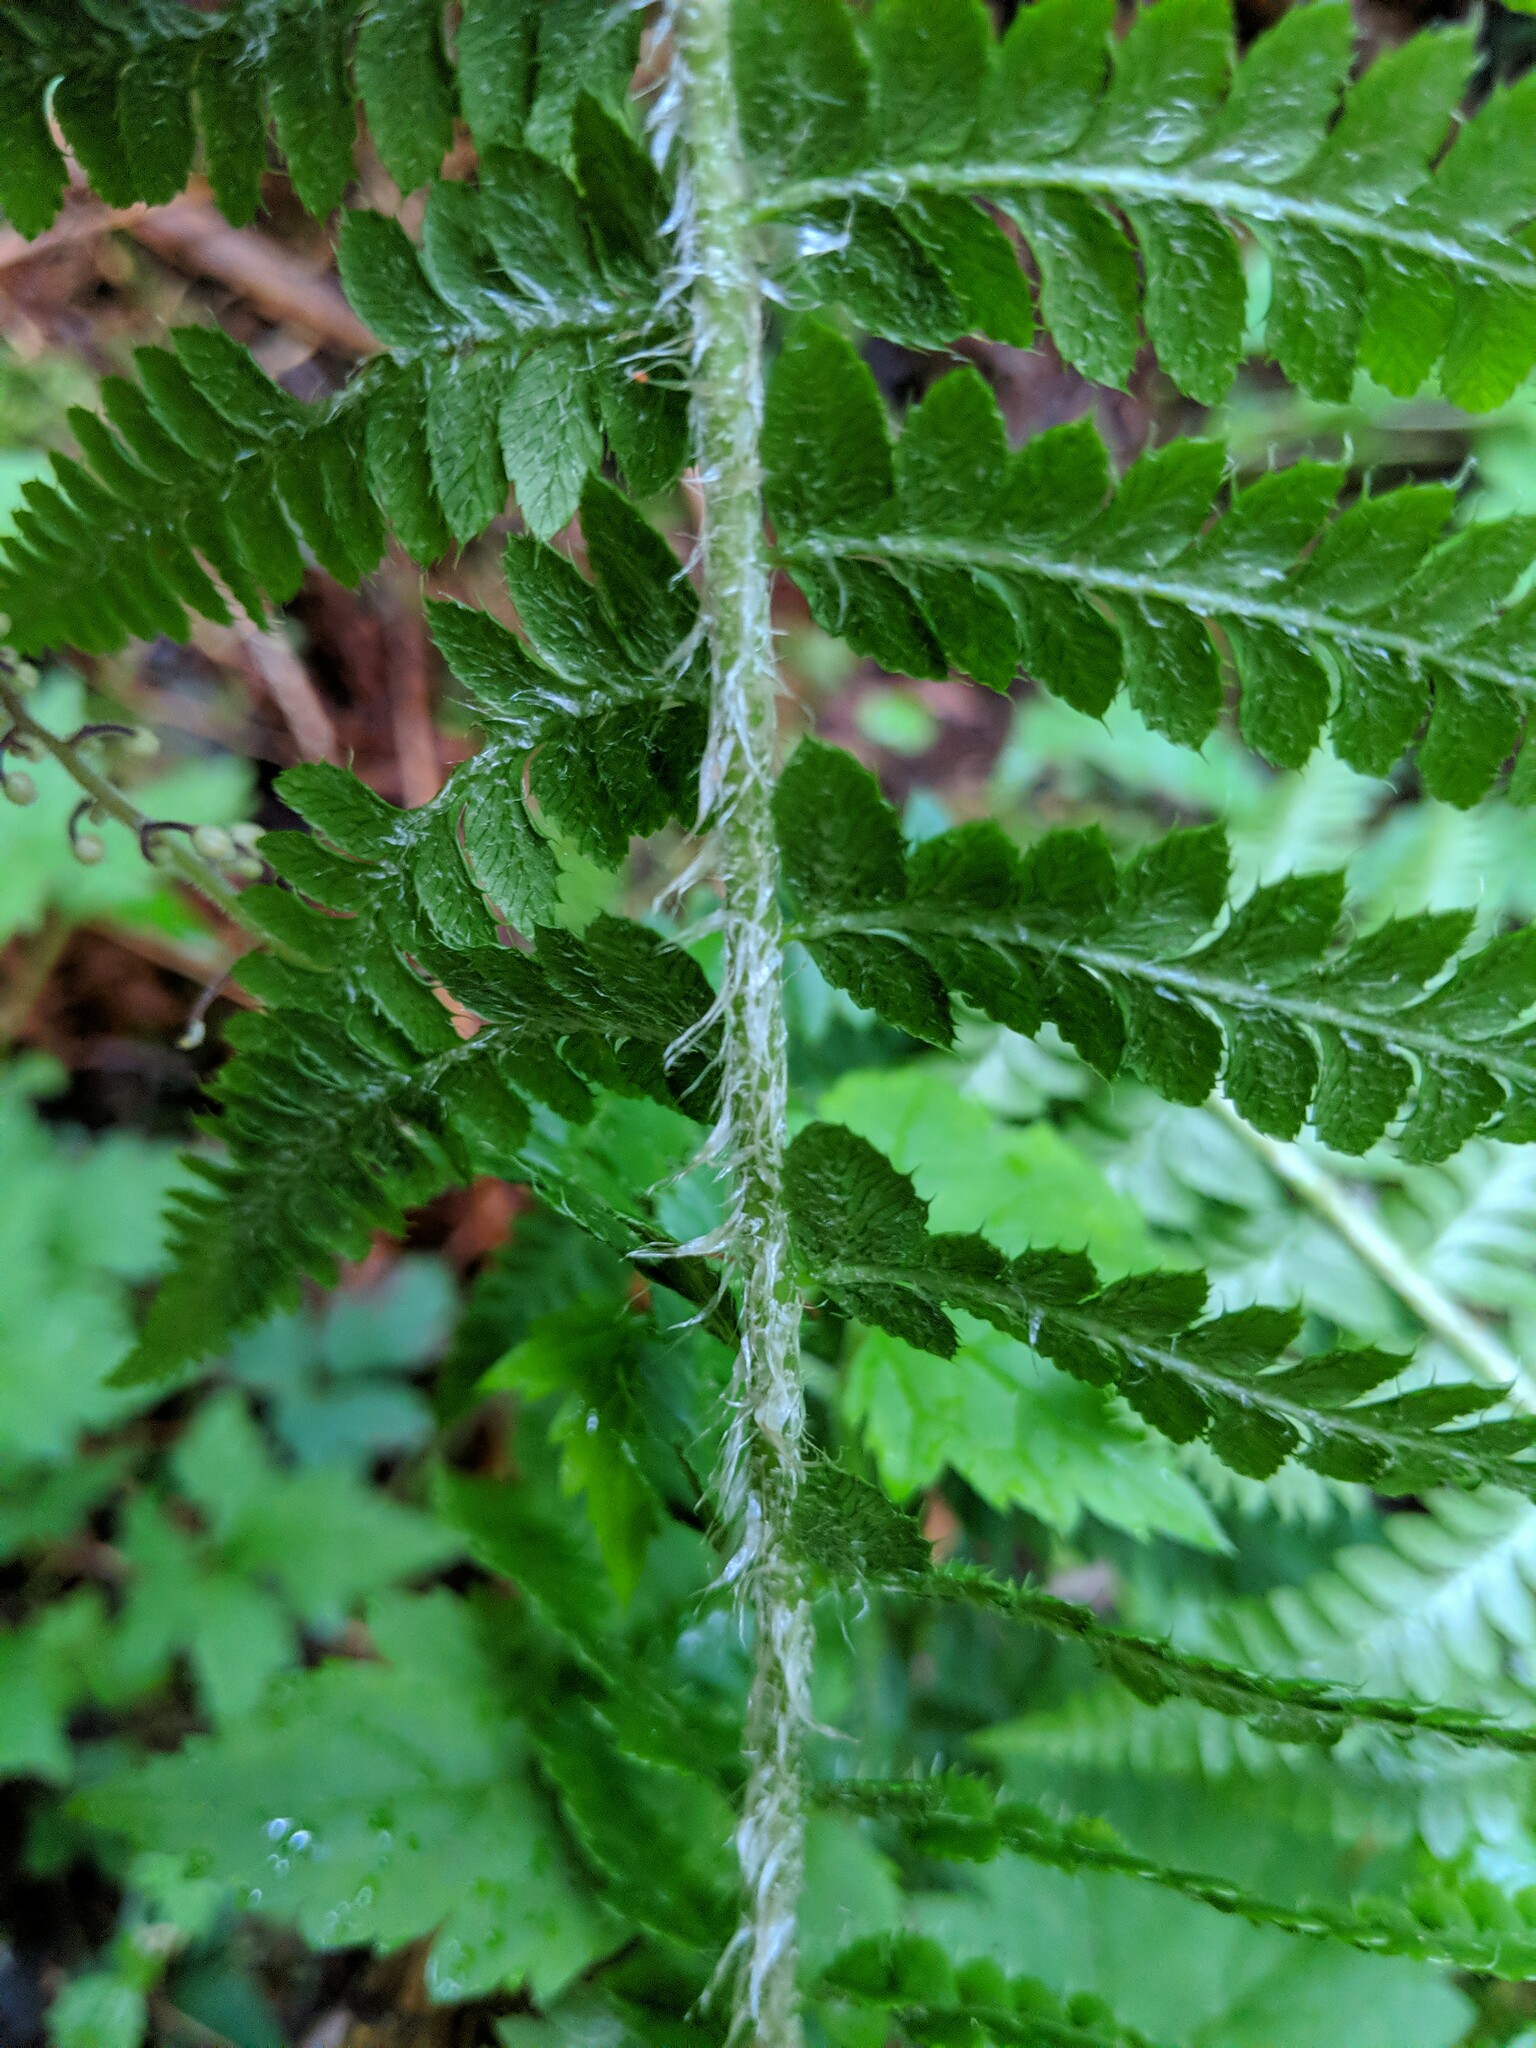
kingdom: Plantae
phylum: Tracheophyta
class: Polypodiopsida
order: Polypodiales
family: Dryopteridaceae
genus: Polystichum
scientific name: Polystichum andersonii
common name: Anderson's holly fern
